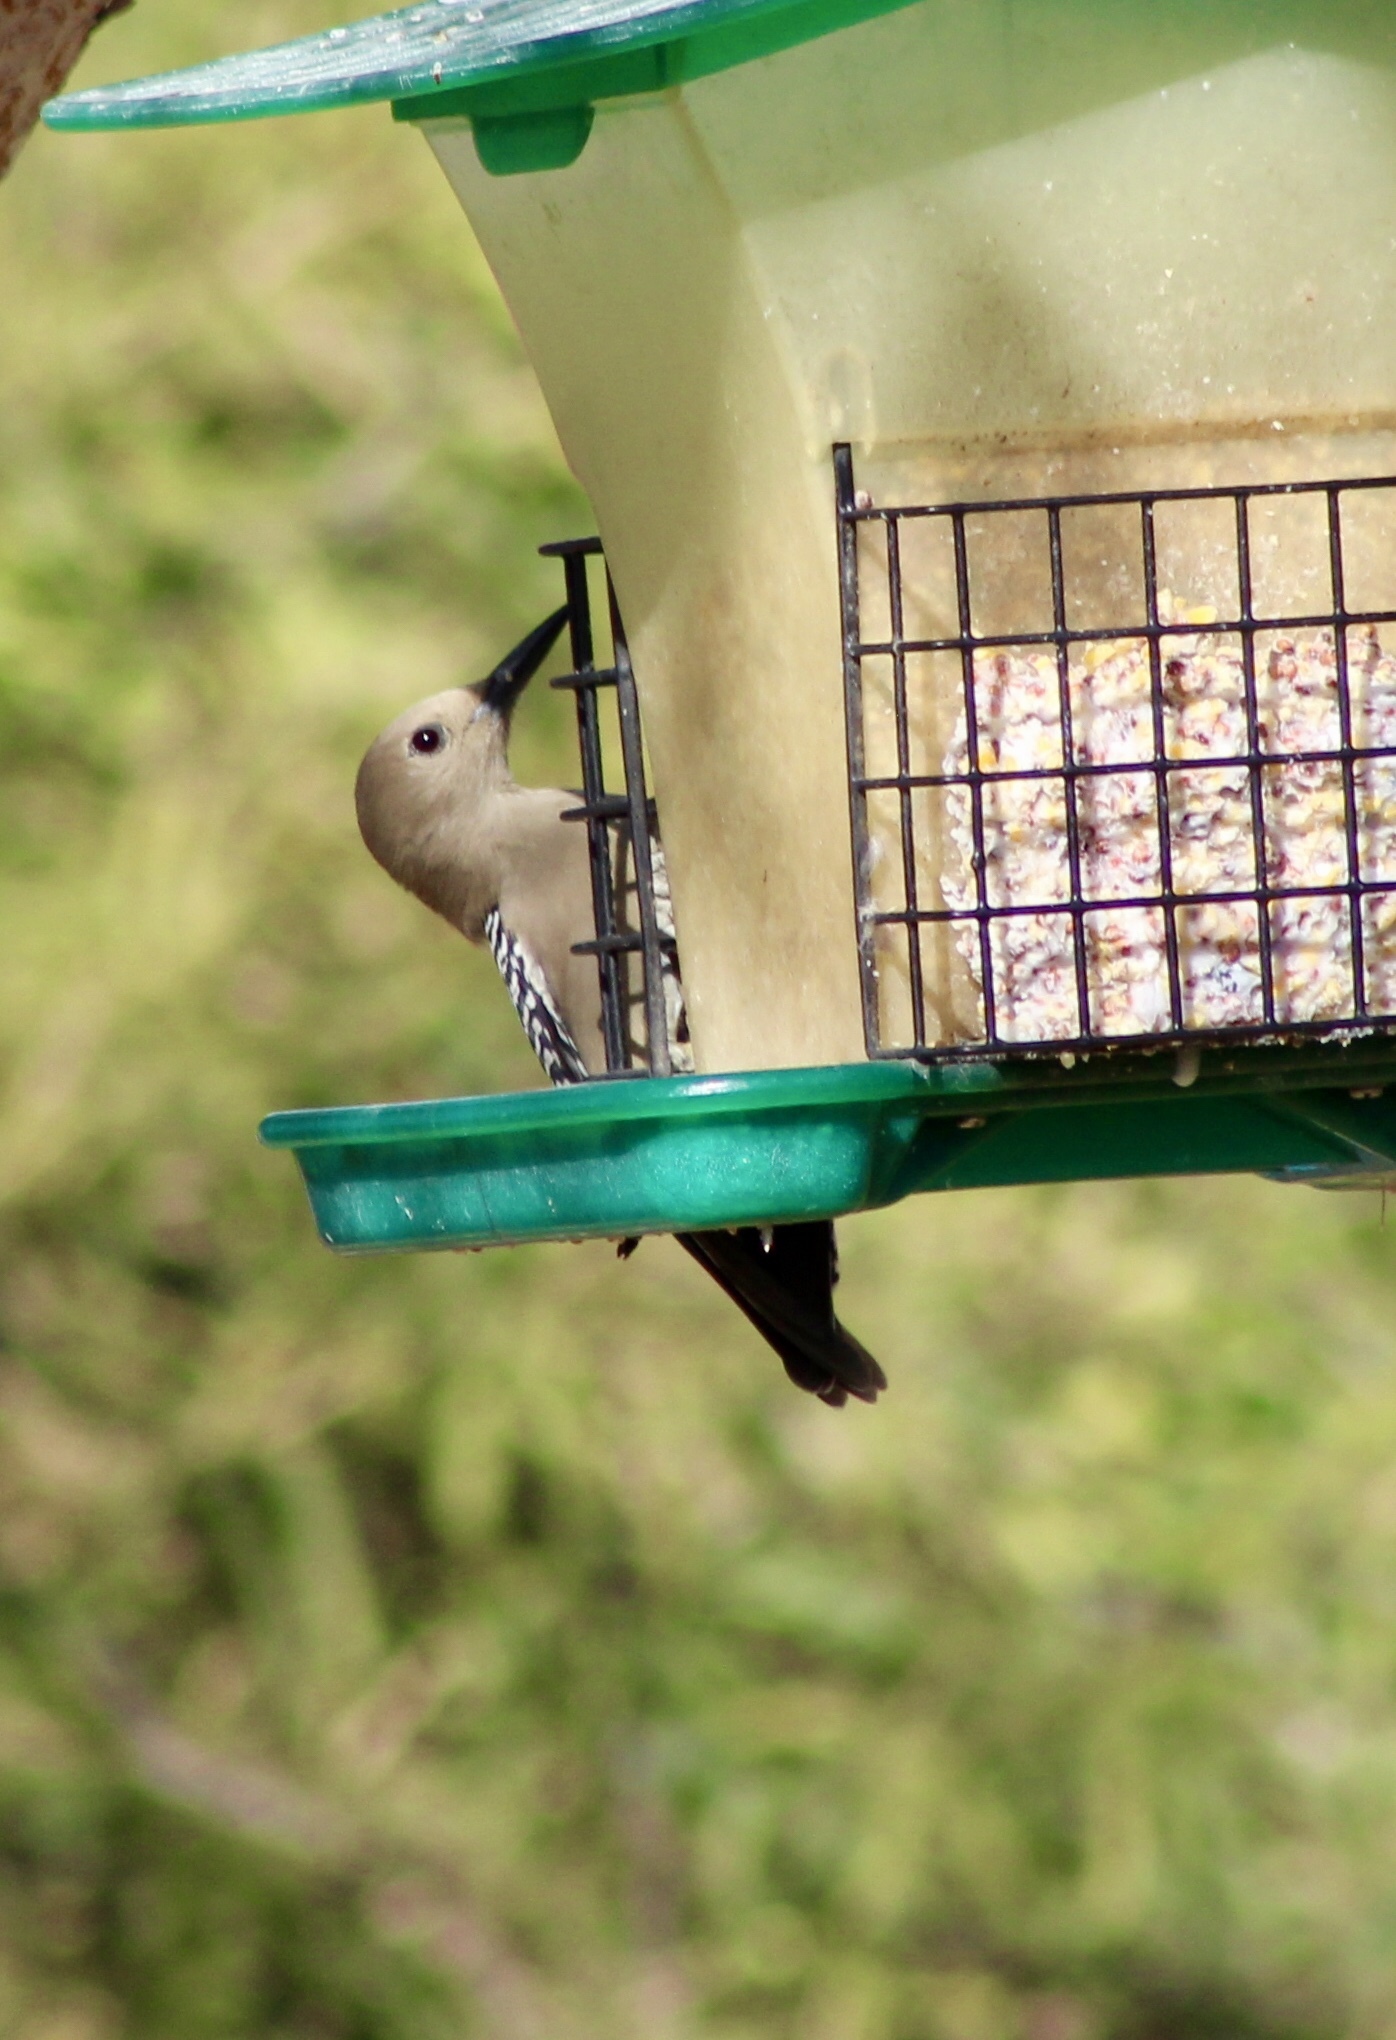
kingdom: Animalia
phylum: Chordata
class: Aves
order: Piciformes
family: Picidae
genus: Melanerpes
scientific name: Melanerpes uropygialis
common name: Gila woodpecker
